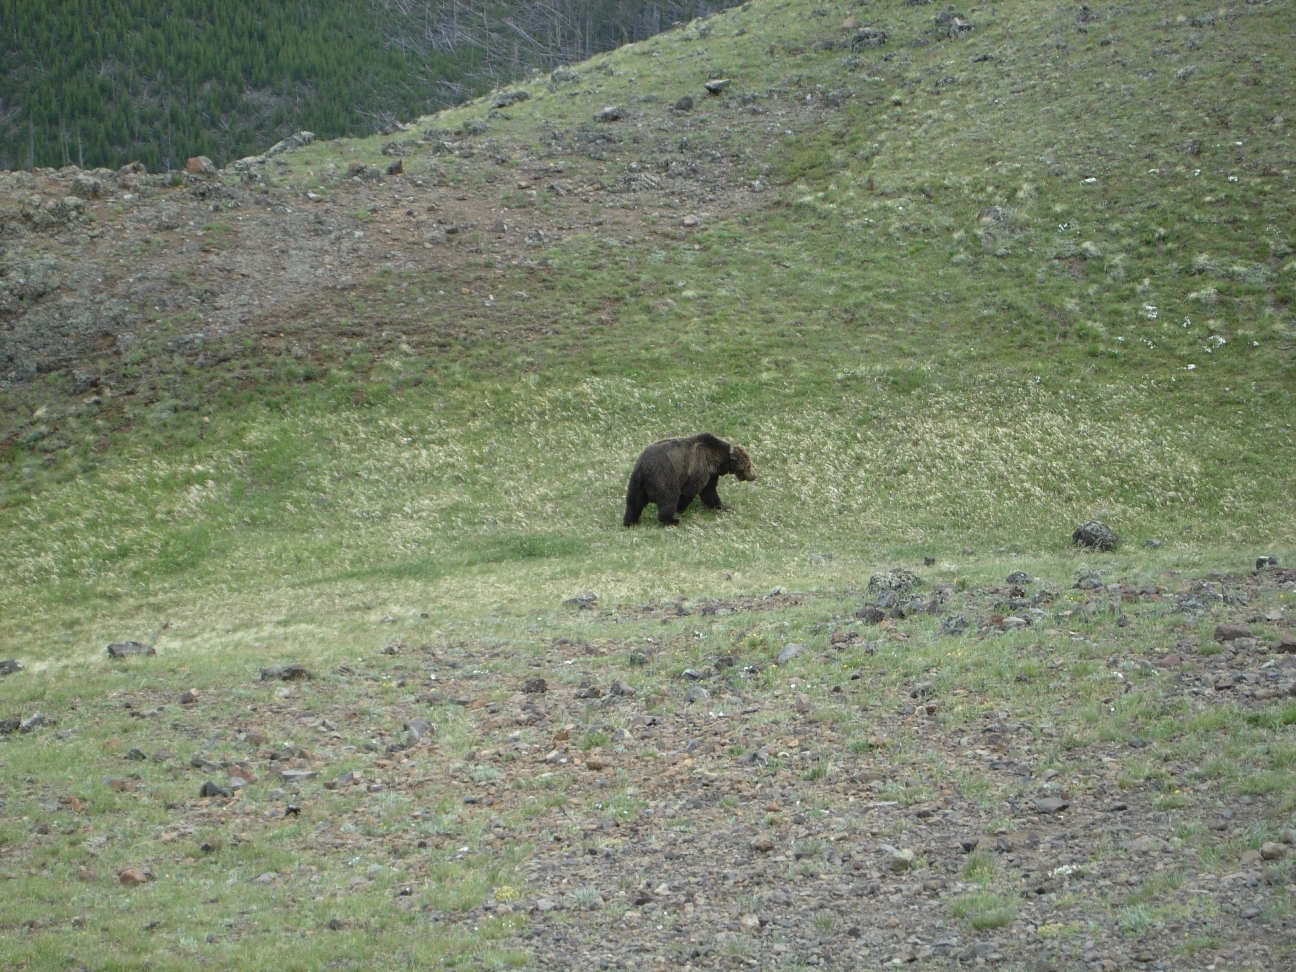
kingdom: Animalia
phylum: Chordata
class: Mammalia
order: Carnivora
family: Ursidae
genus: Ursus
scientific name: Ursus arctos
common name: Brown bear
